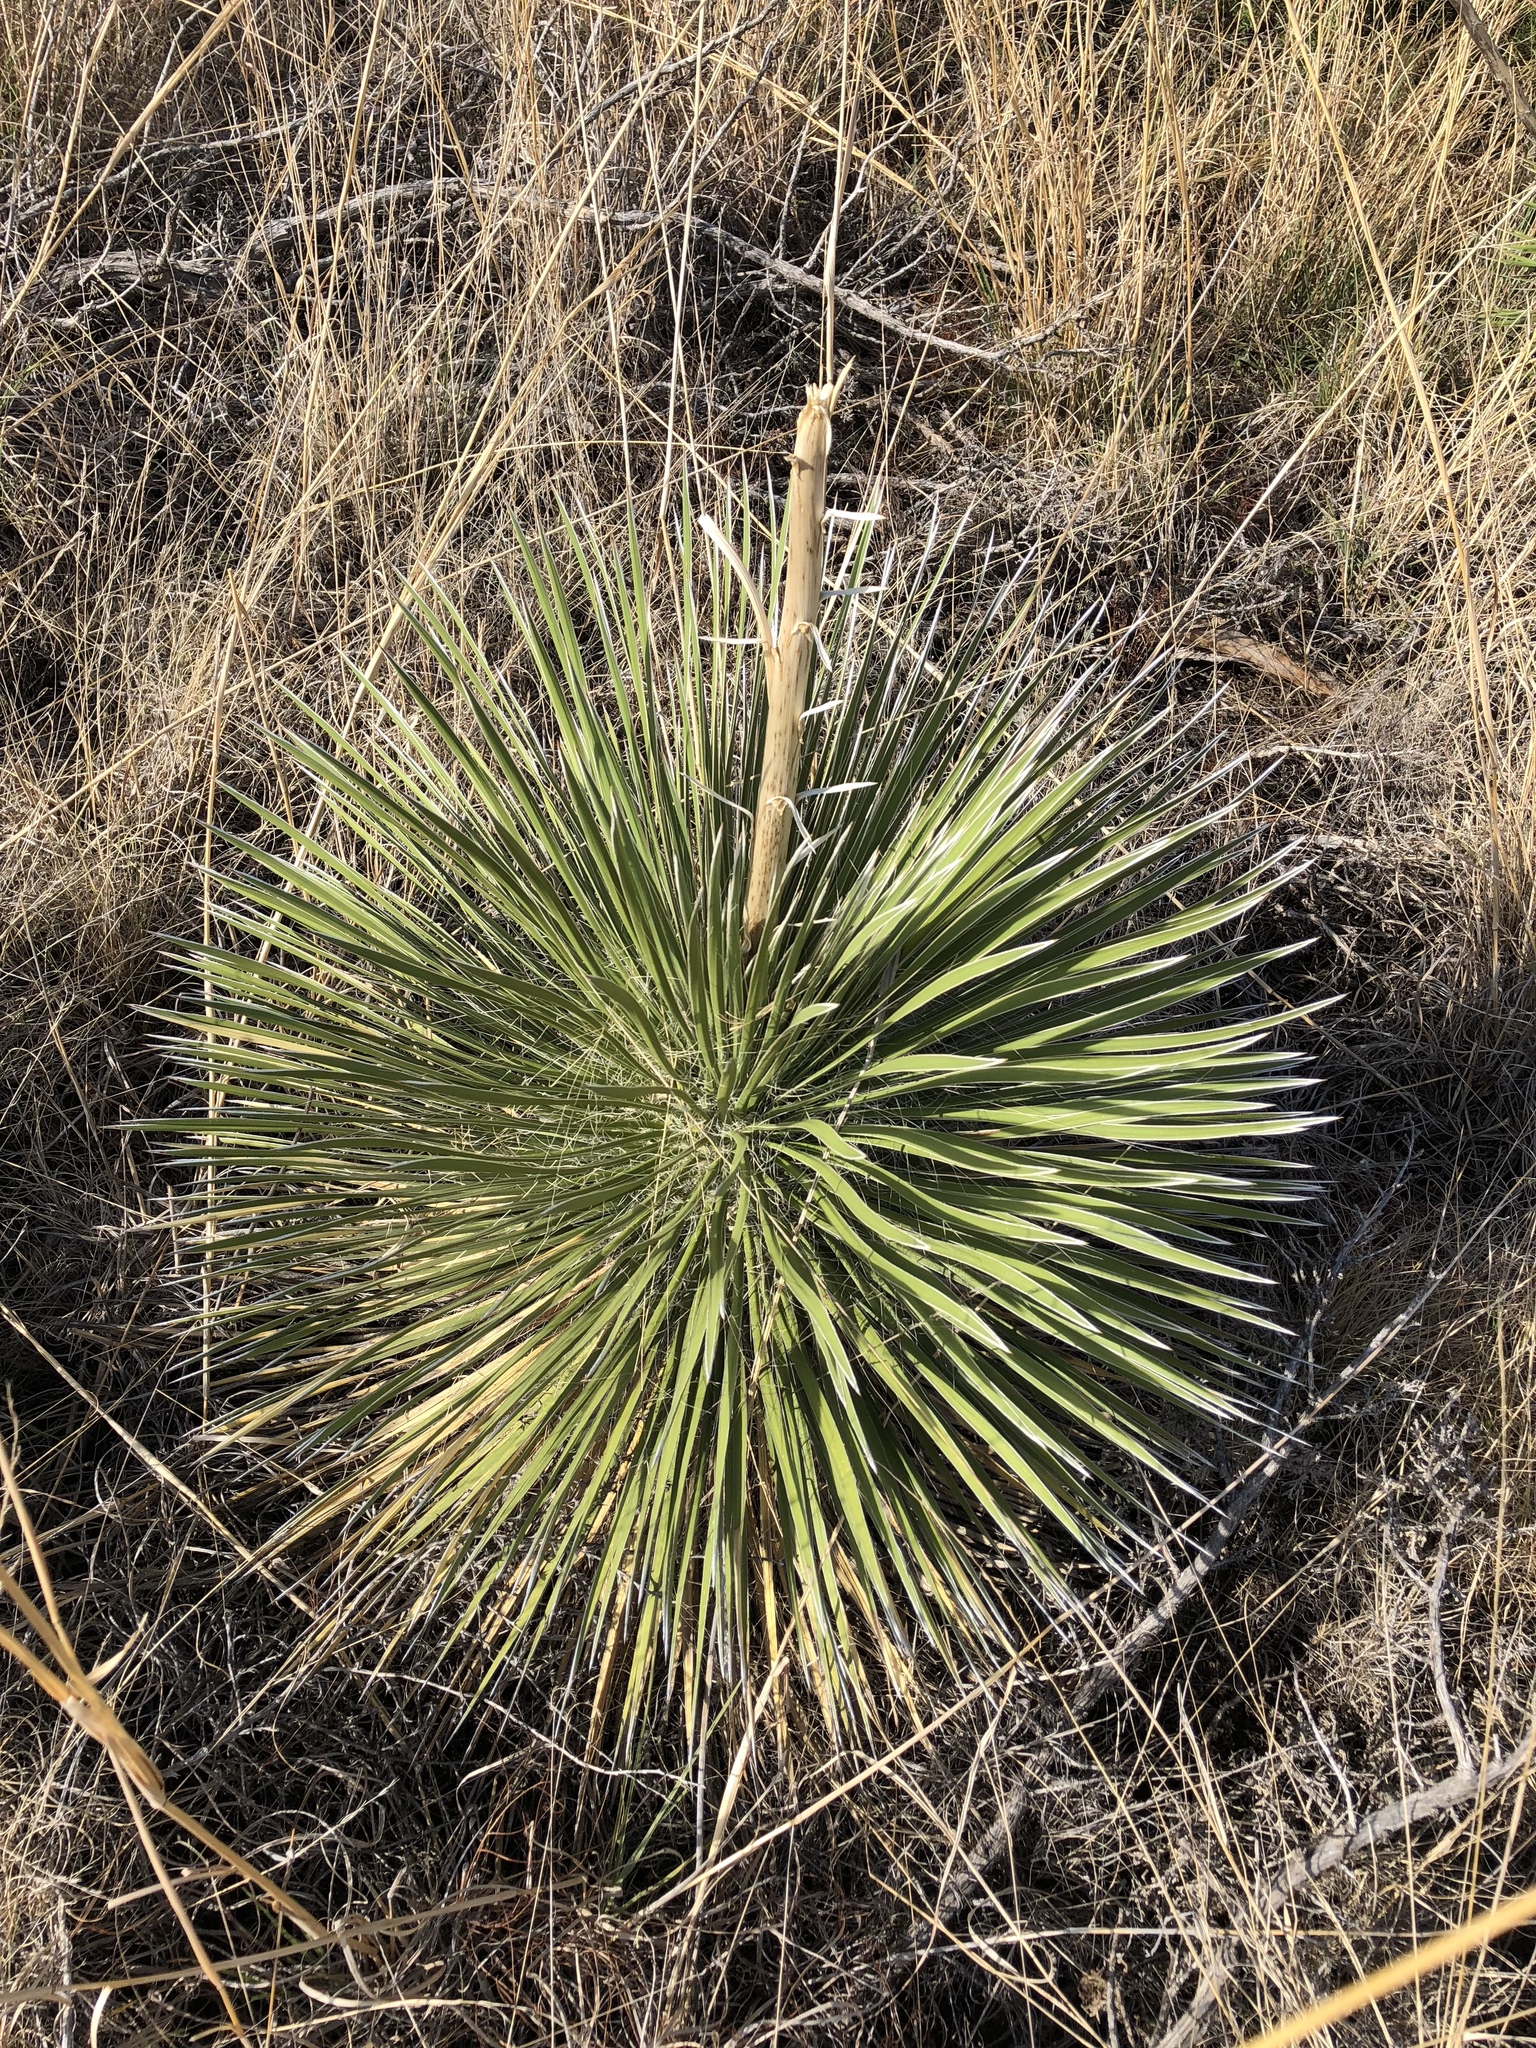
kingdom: Plantae
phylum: Tracheophyta
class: Liliopsida
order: Asparagales
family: Asparagaceae
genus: Yucca
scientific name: Yucca elata
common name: Palmella
